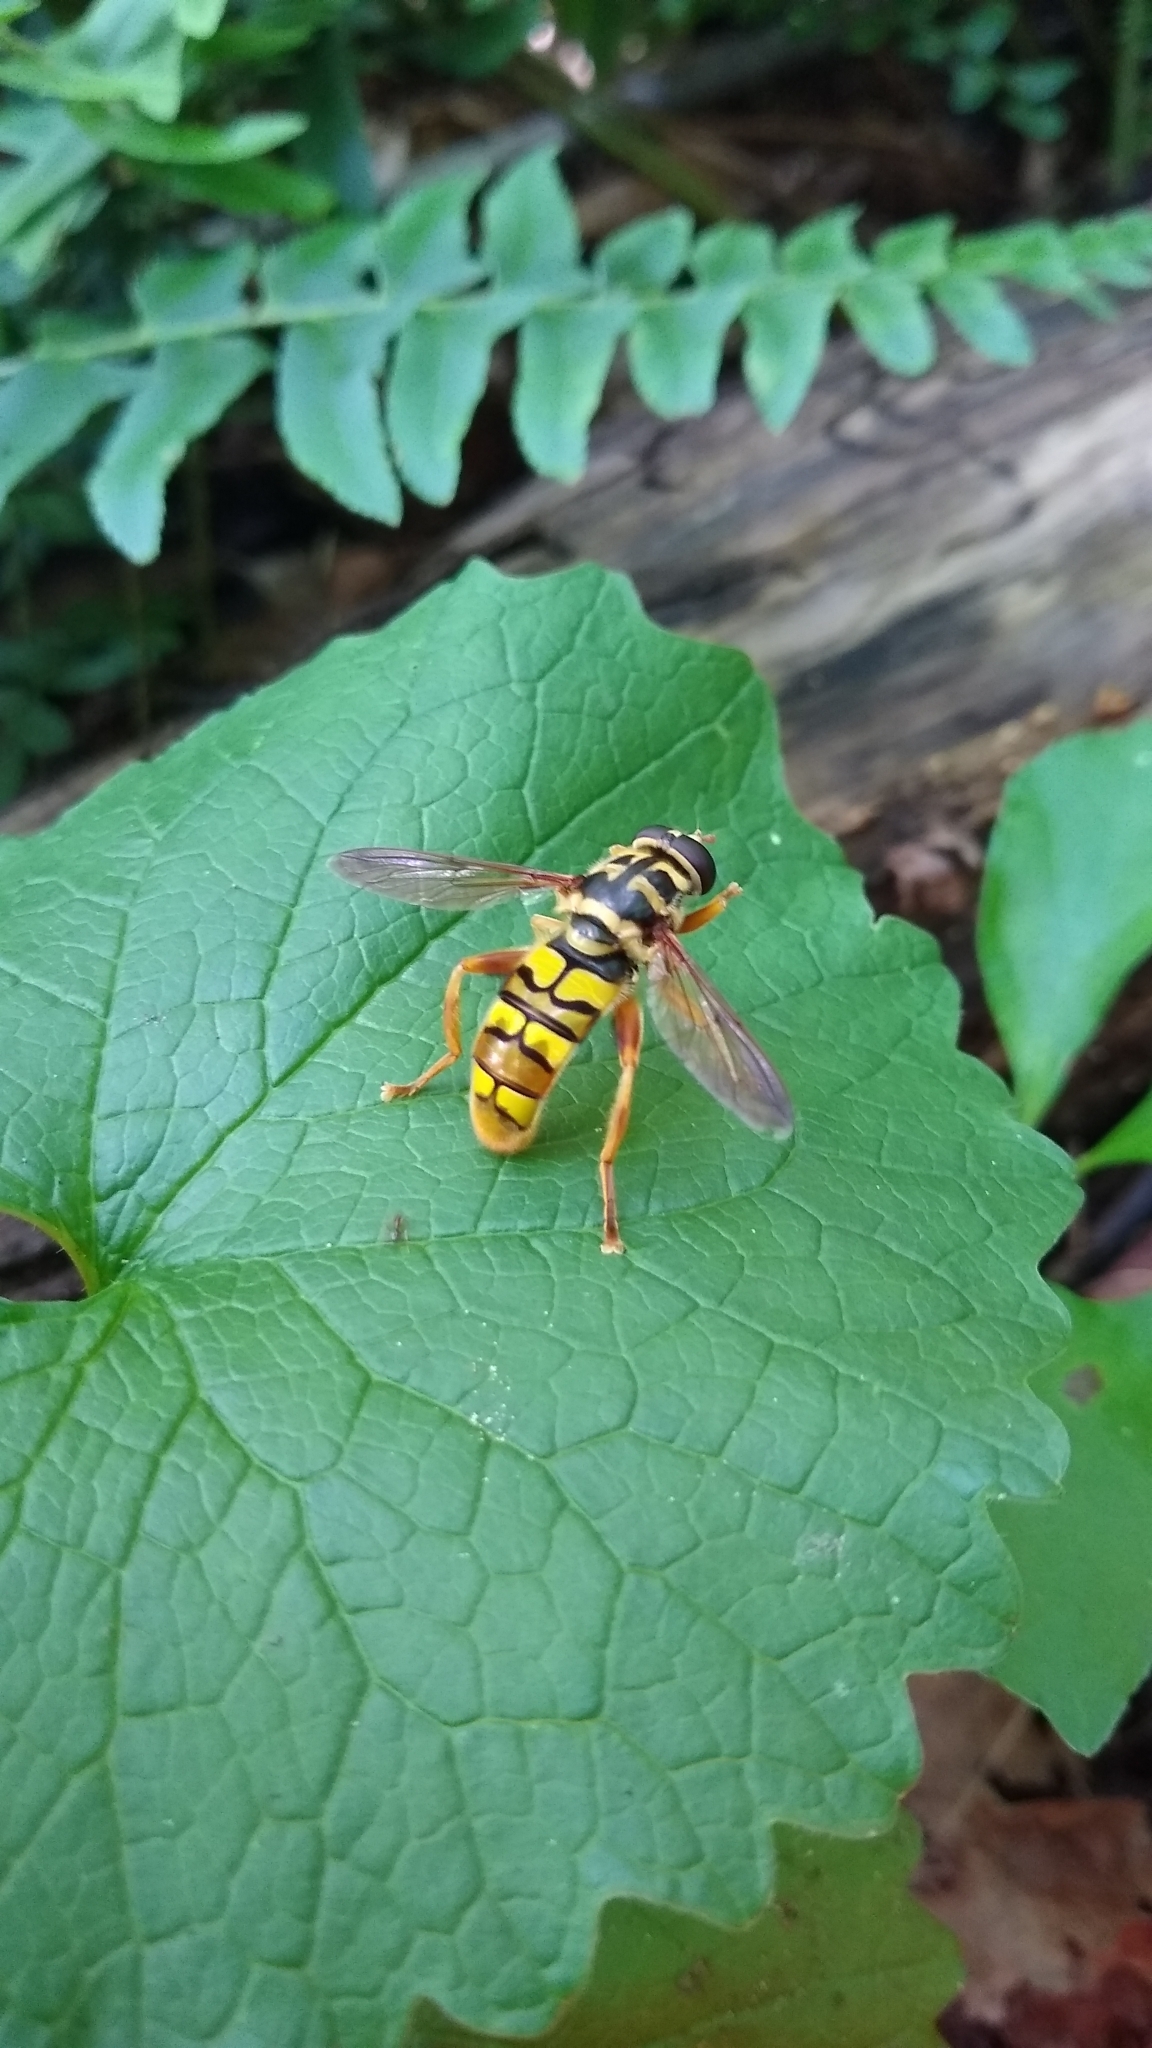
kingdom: Animalia
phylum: Arthropoda
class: Insecta
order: Diptera
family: Syrphidae
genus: Milesia
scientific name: Milesia virginiensis
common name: Virginia giant
